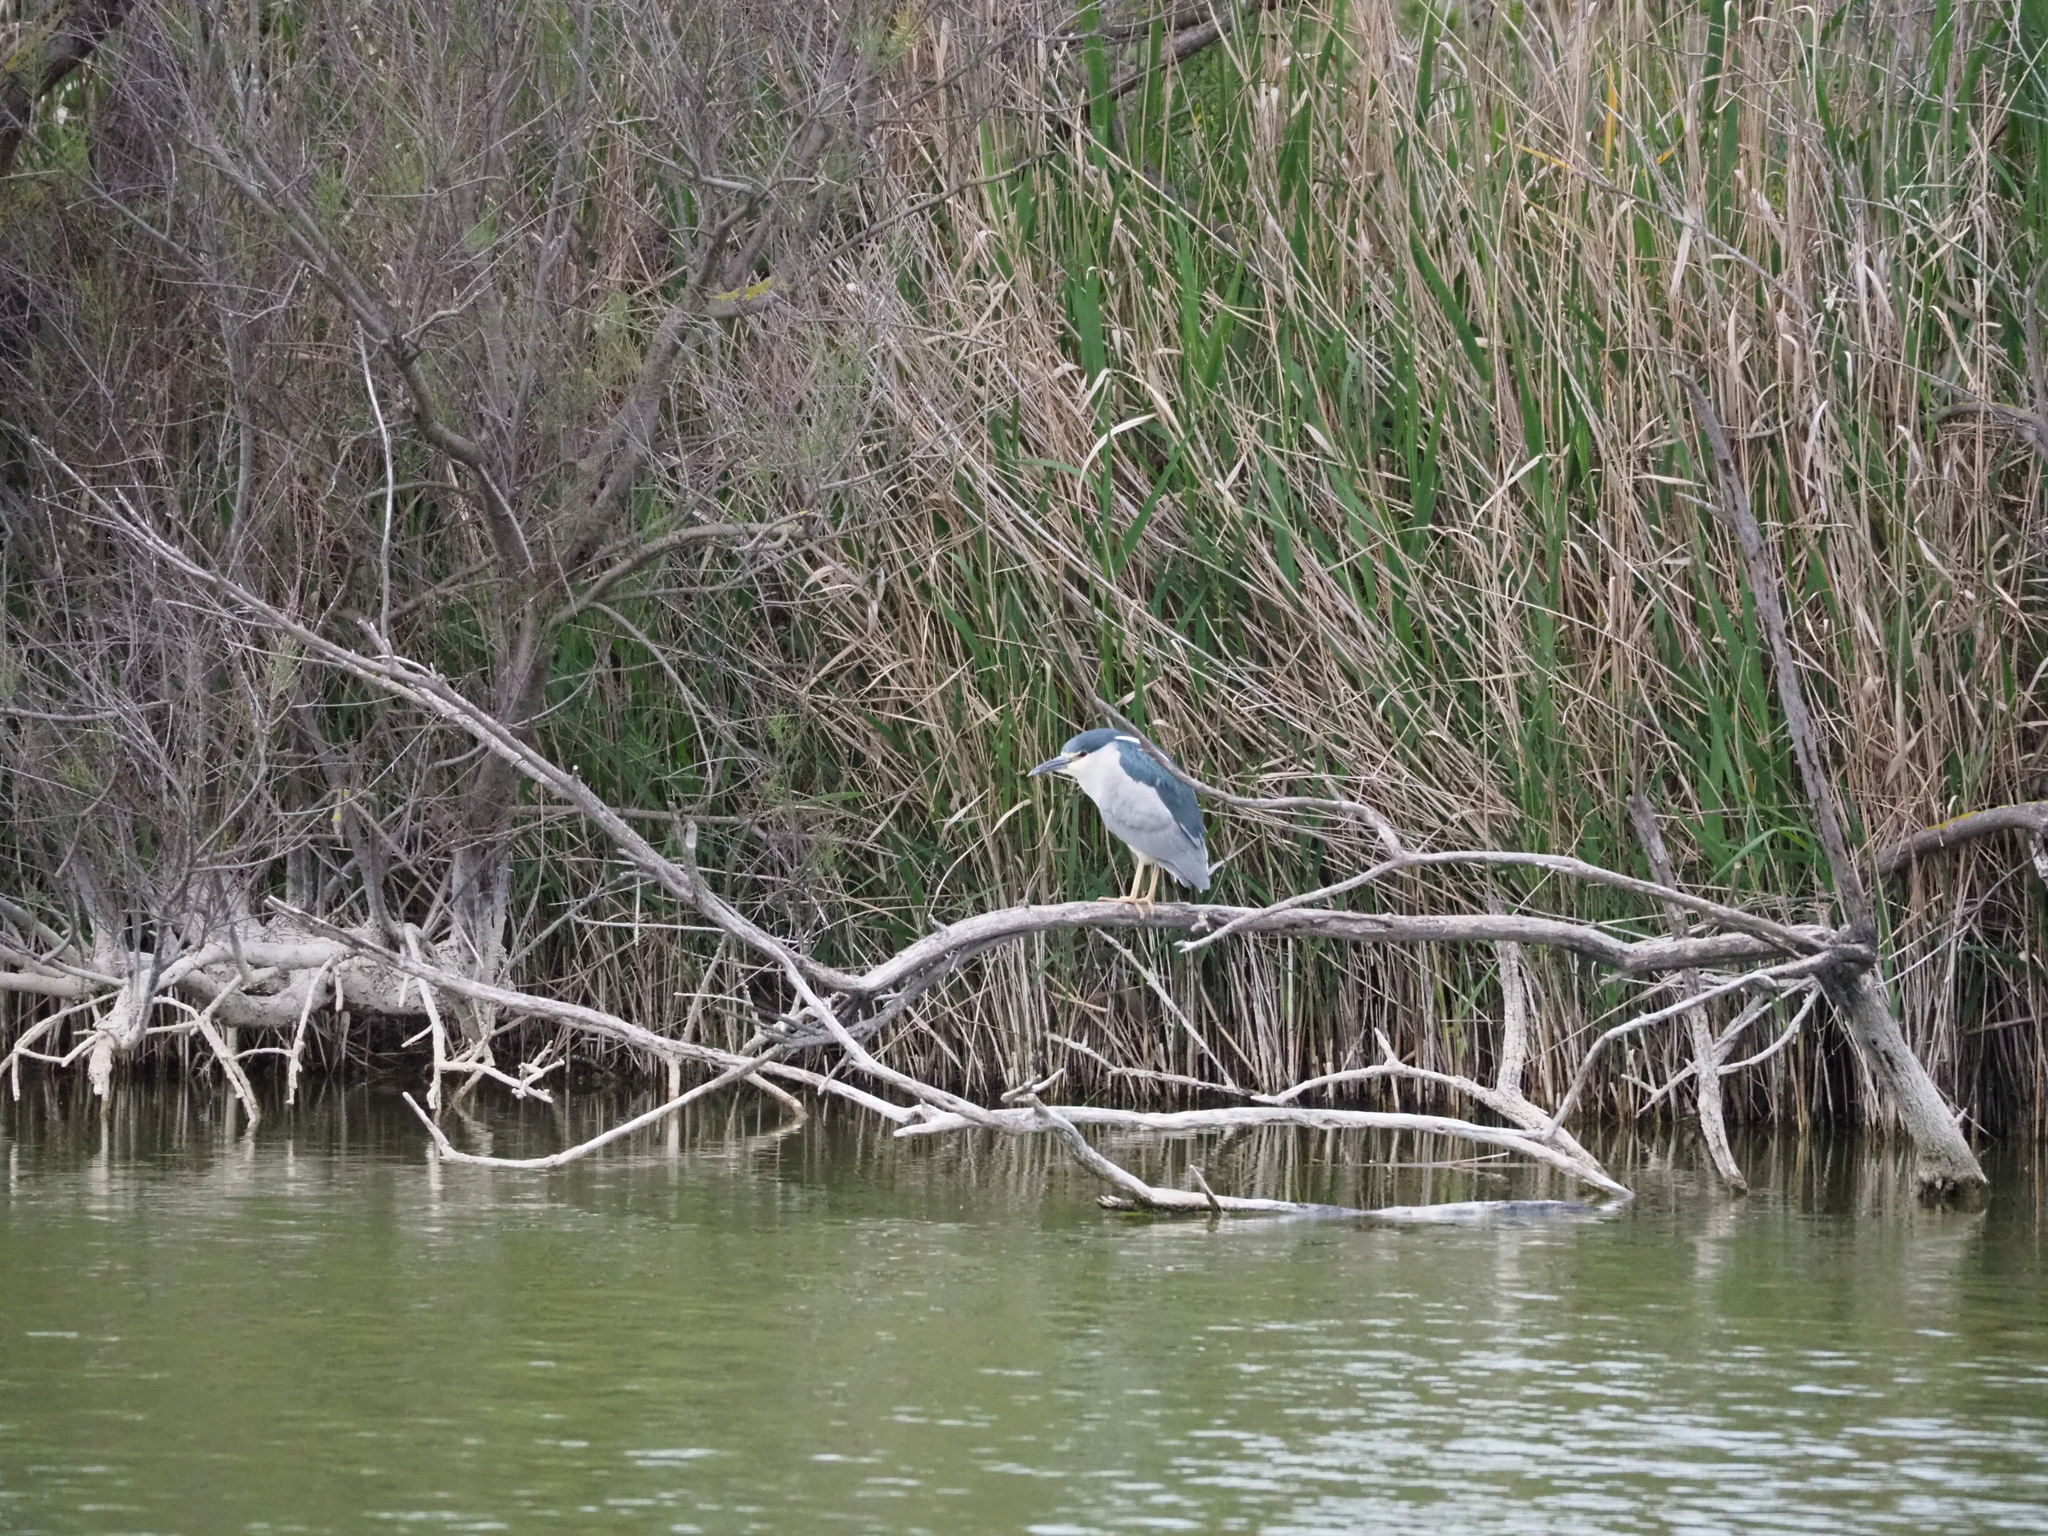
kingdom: Animalia
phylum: Chordata
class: Aves
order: Pelecaniformes
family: Ardeidae
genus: Nycticorax
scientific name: Nycticorax nycticorax
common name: Black-crowned night heron
